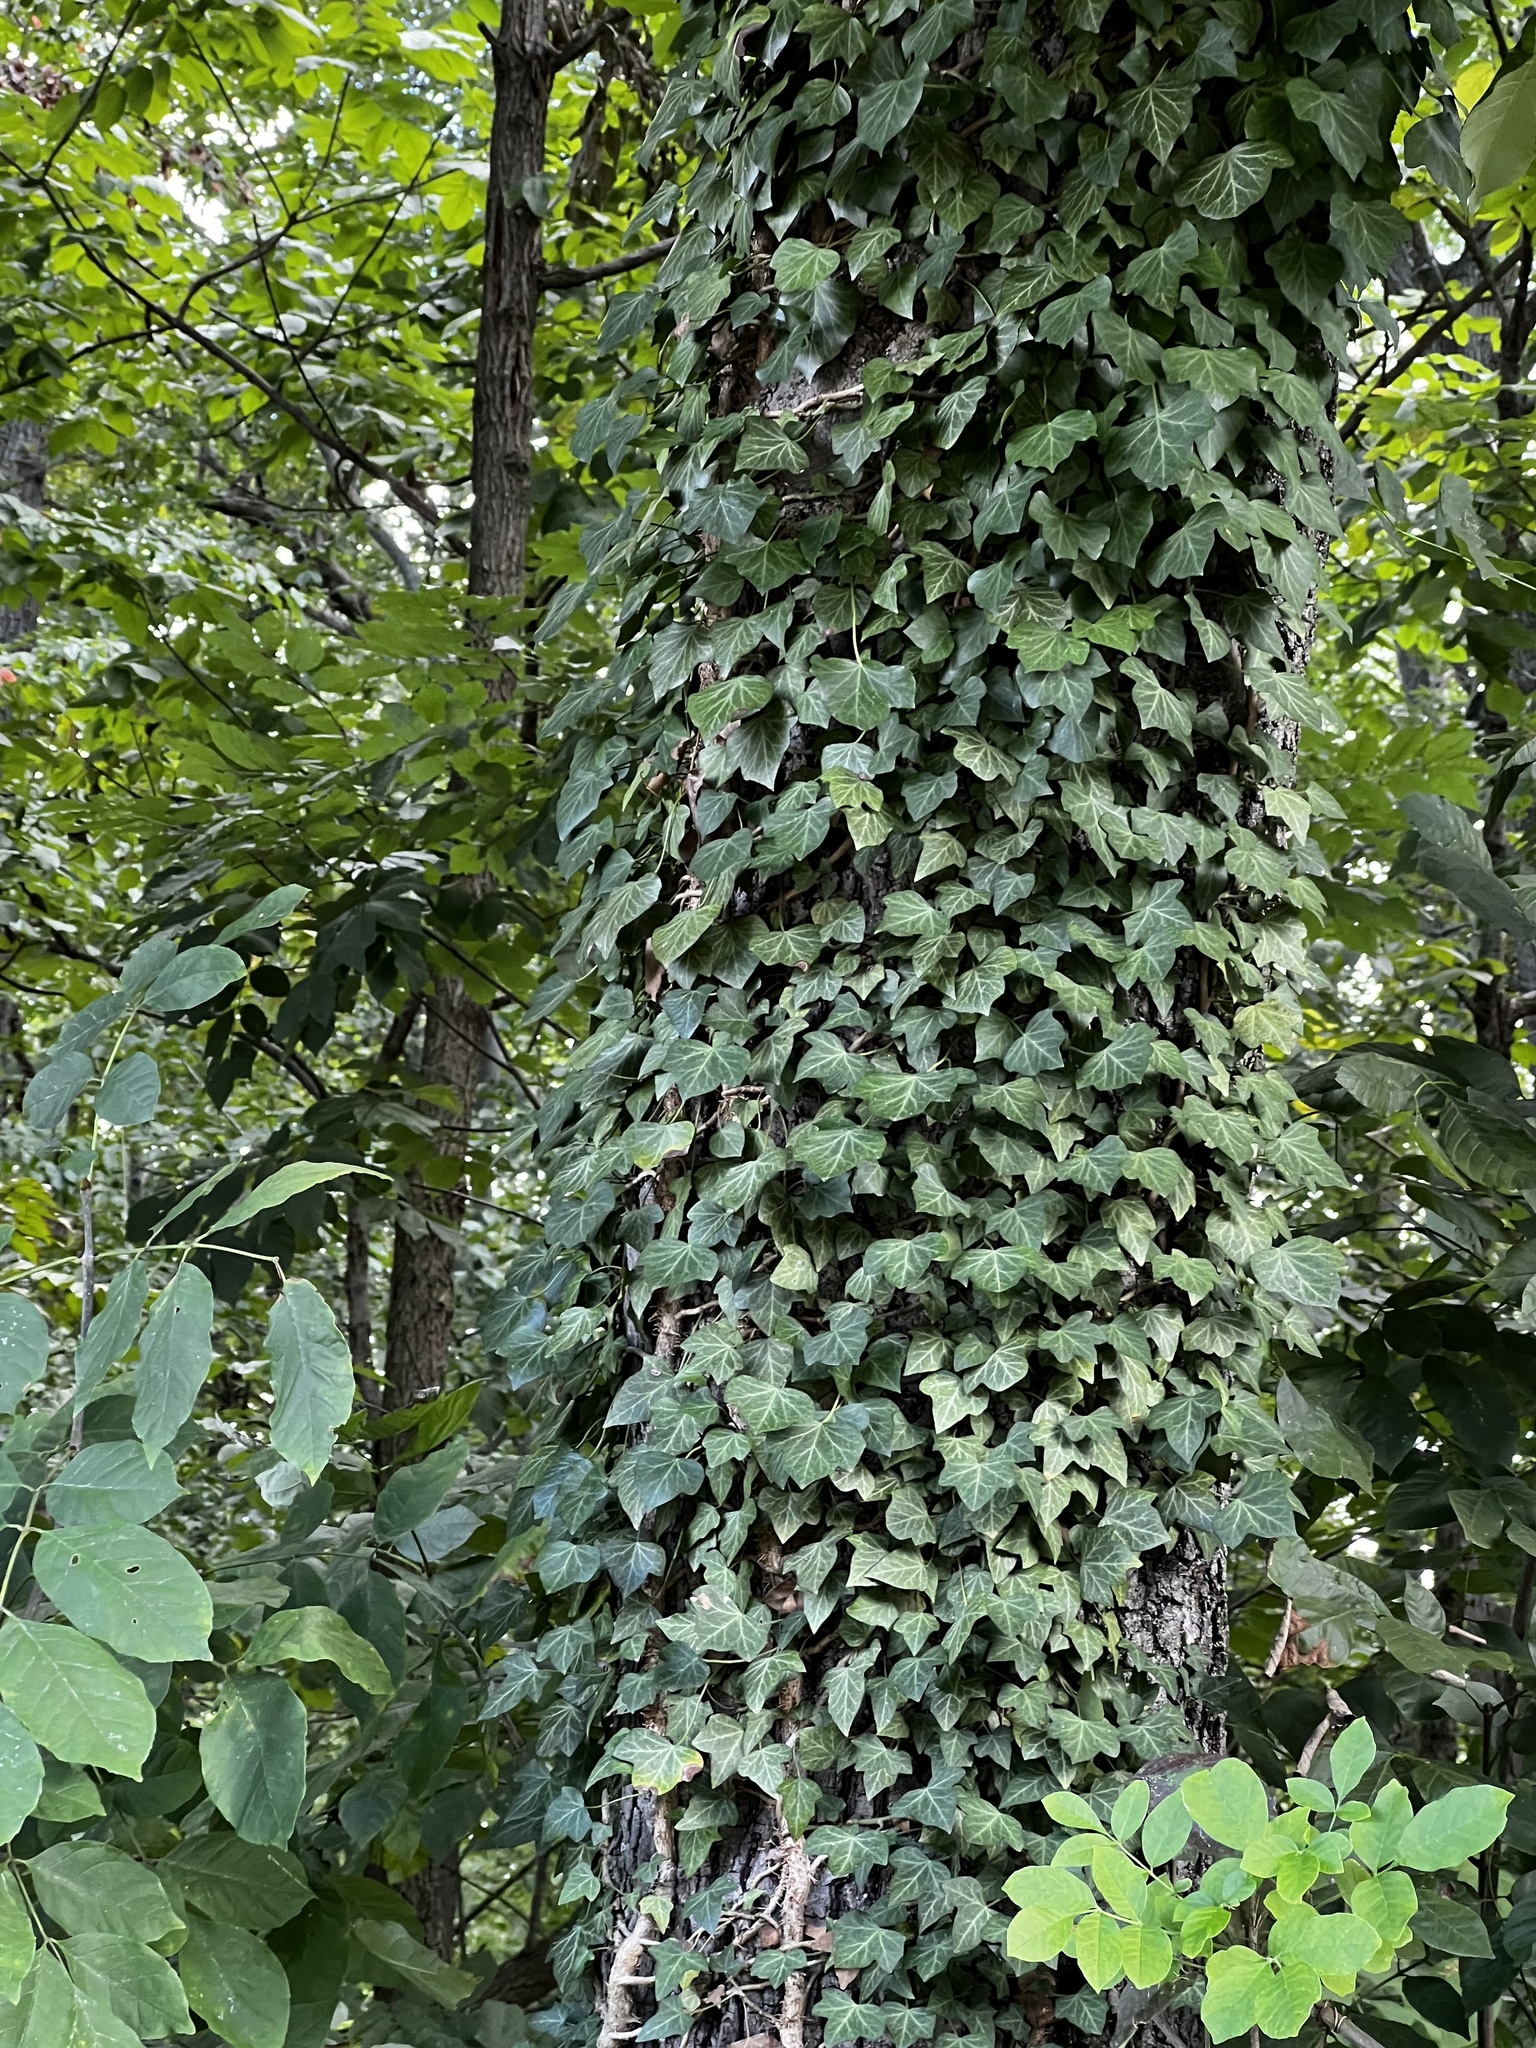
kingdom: Plantae
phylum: Tracheophyta
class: Magnoliopsida
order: Apiales
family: Araliaceae
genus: Hedera
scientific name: Hedera helix
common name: Ivy
